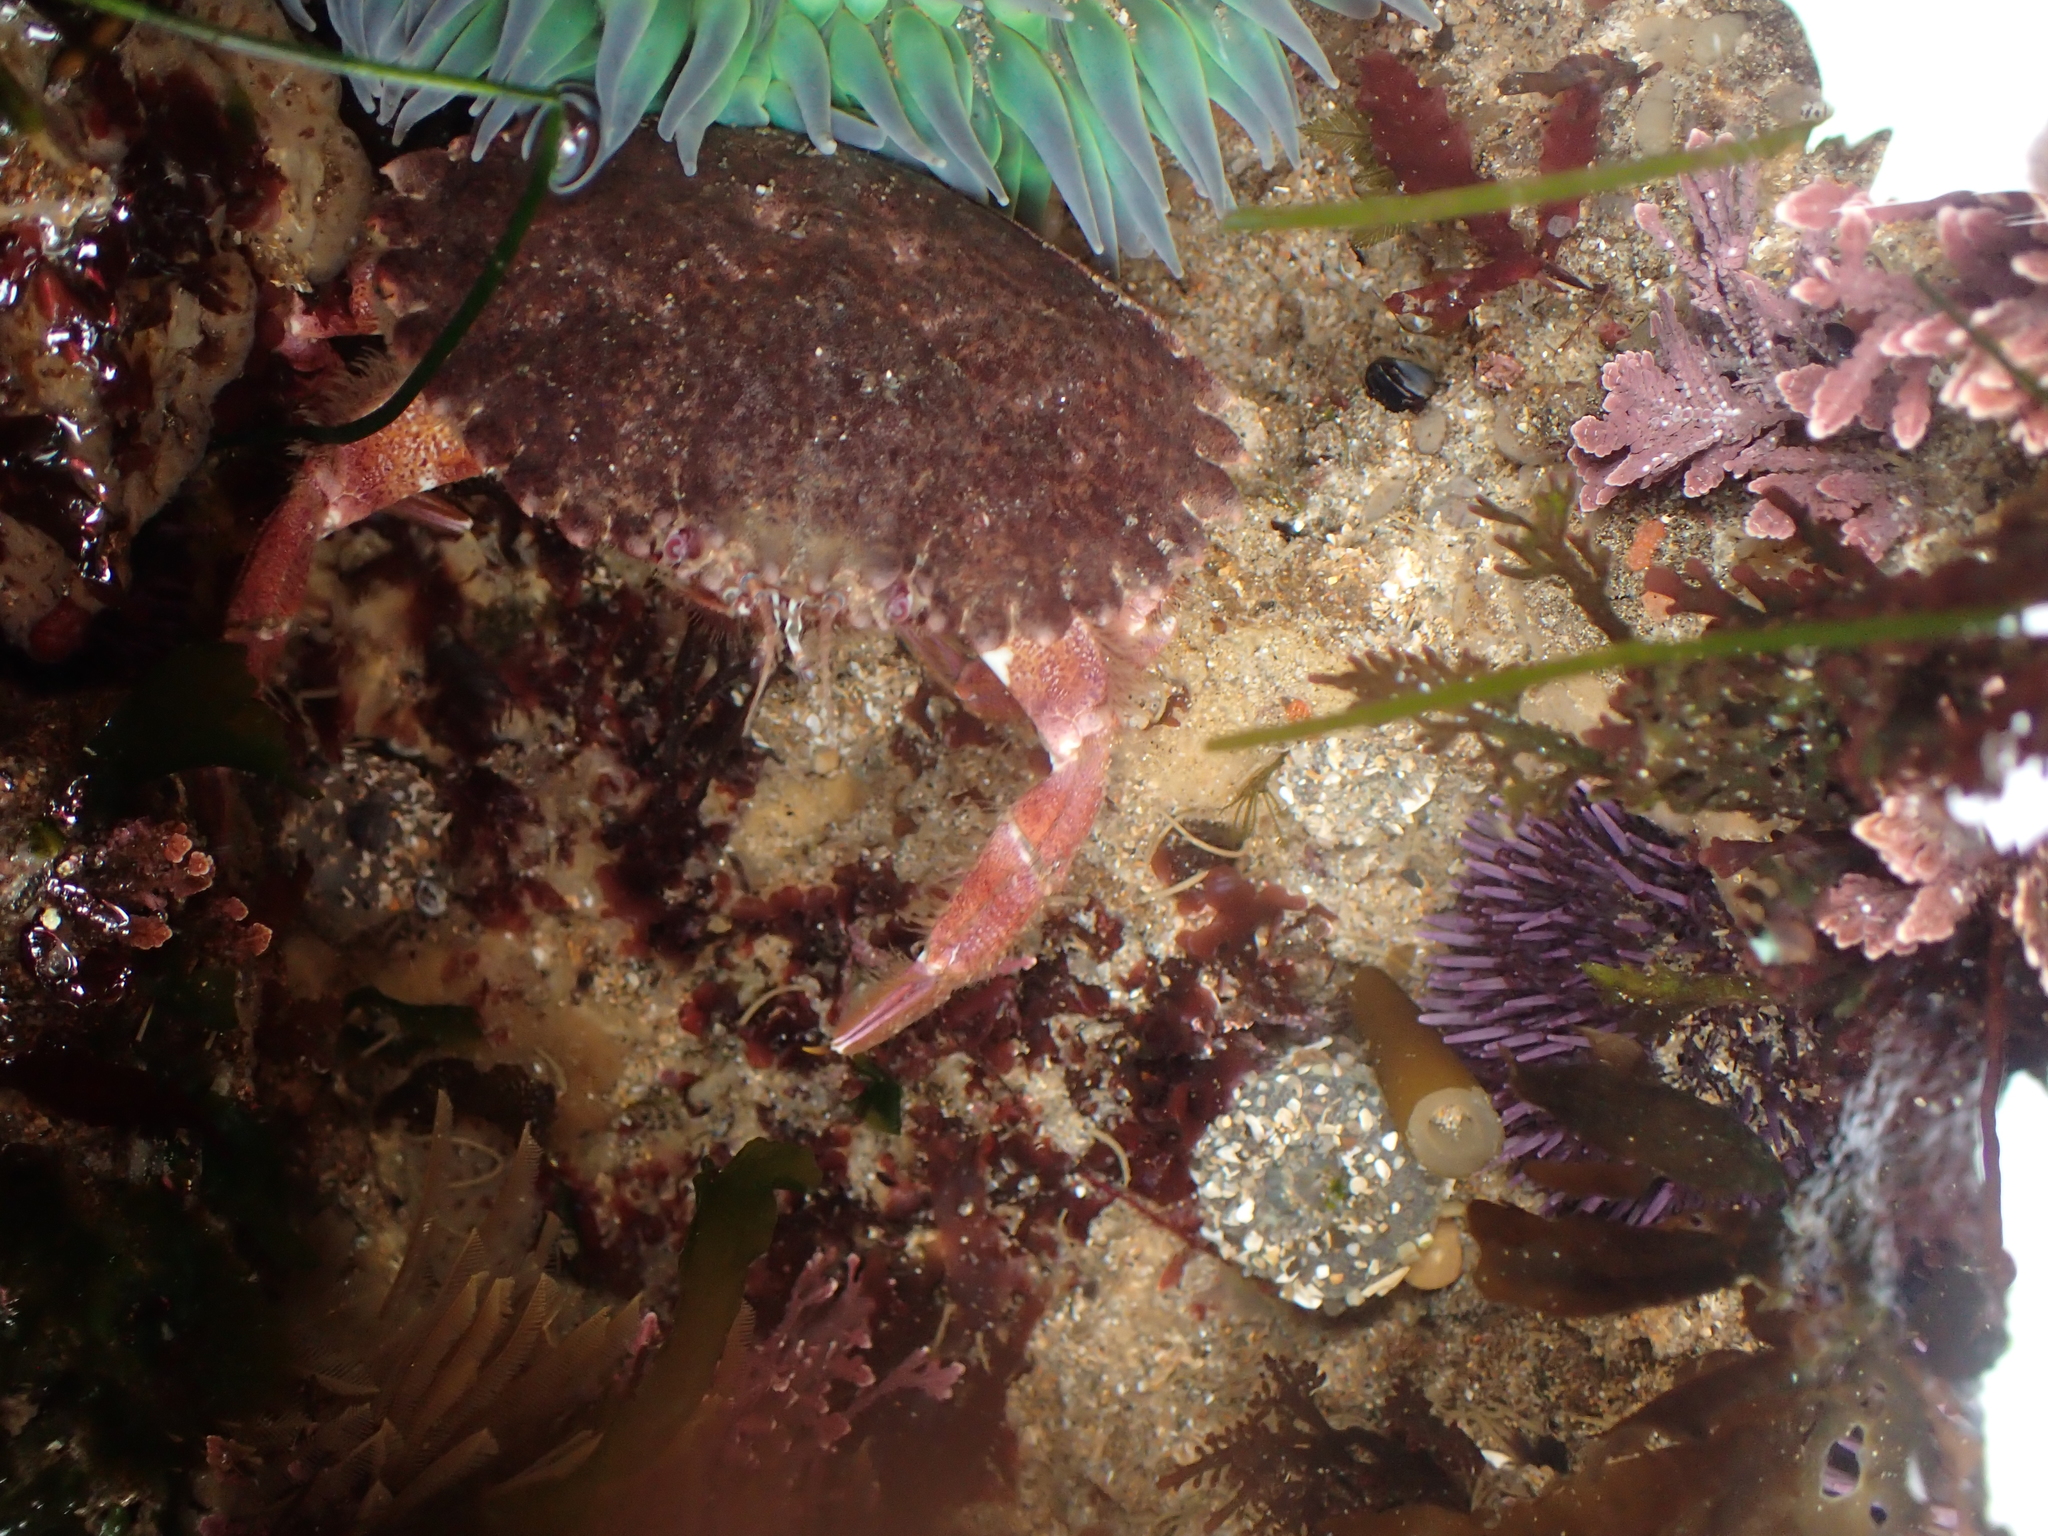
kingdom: Animalia
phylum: Arthropoda
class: Malacostraca
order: Decapoda
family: Cancridae
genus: Romaleon
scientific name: Romaleon antennarium
